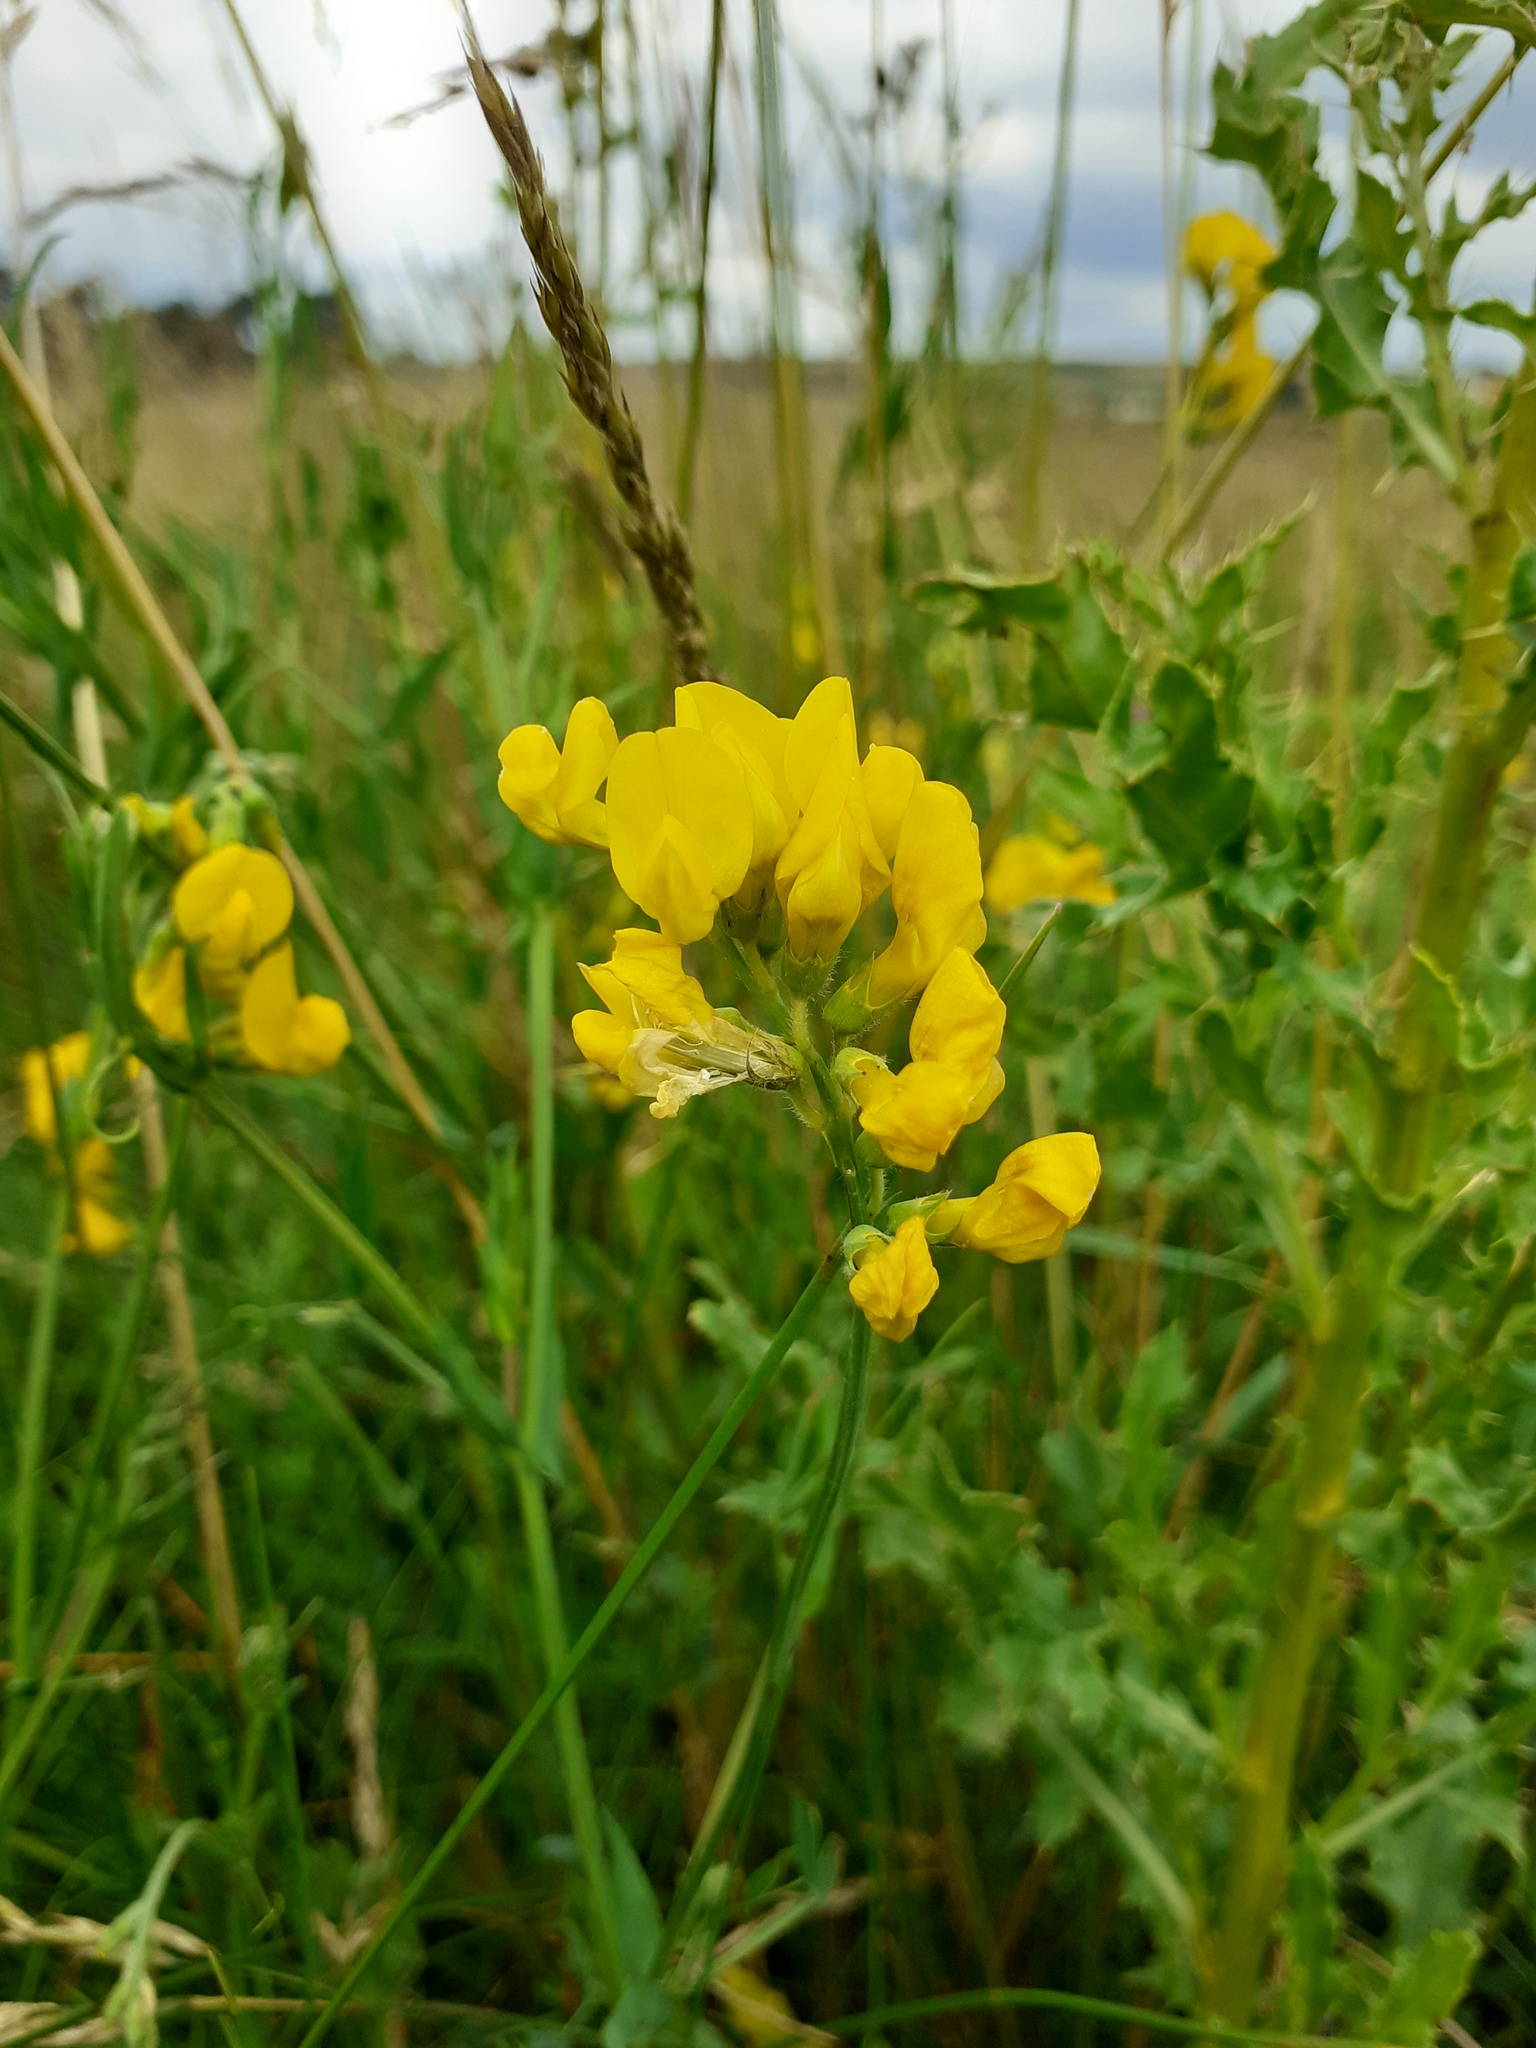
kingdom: Plantae
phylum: Tracheophyta
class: Magnoliopsida
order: Fabales
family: Fabaceae
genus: Lathyrus
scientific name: Lathyrus pratensis
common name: Meadow vetchling
